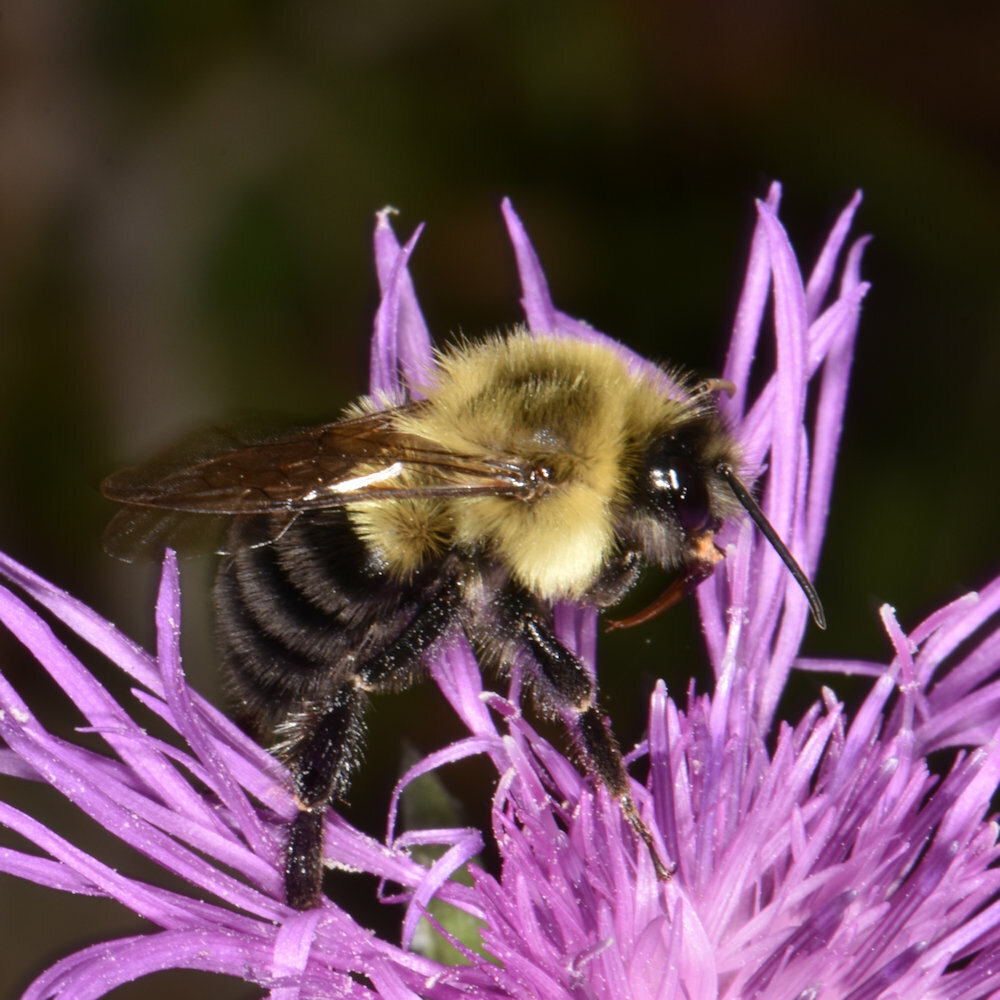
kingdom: Animalia
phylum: Arthropoda
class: Insecta
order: Hymenoptera
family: Apidae
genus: Bombus
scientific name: Bombus impatiens
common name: Common eastern bumble bee
